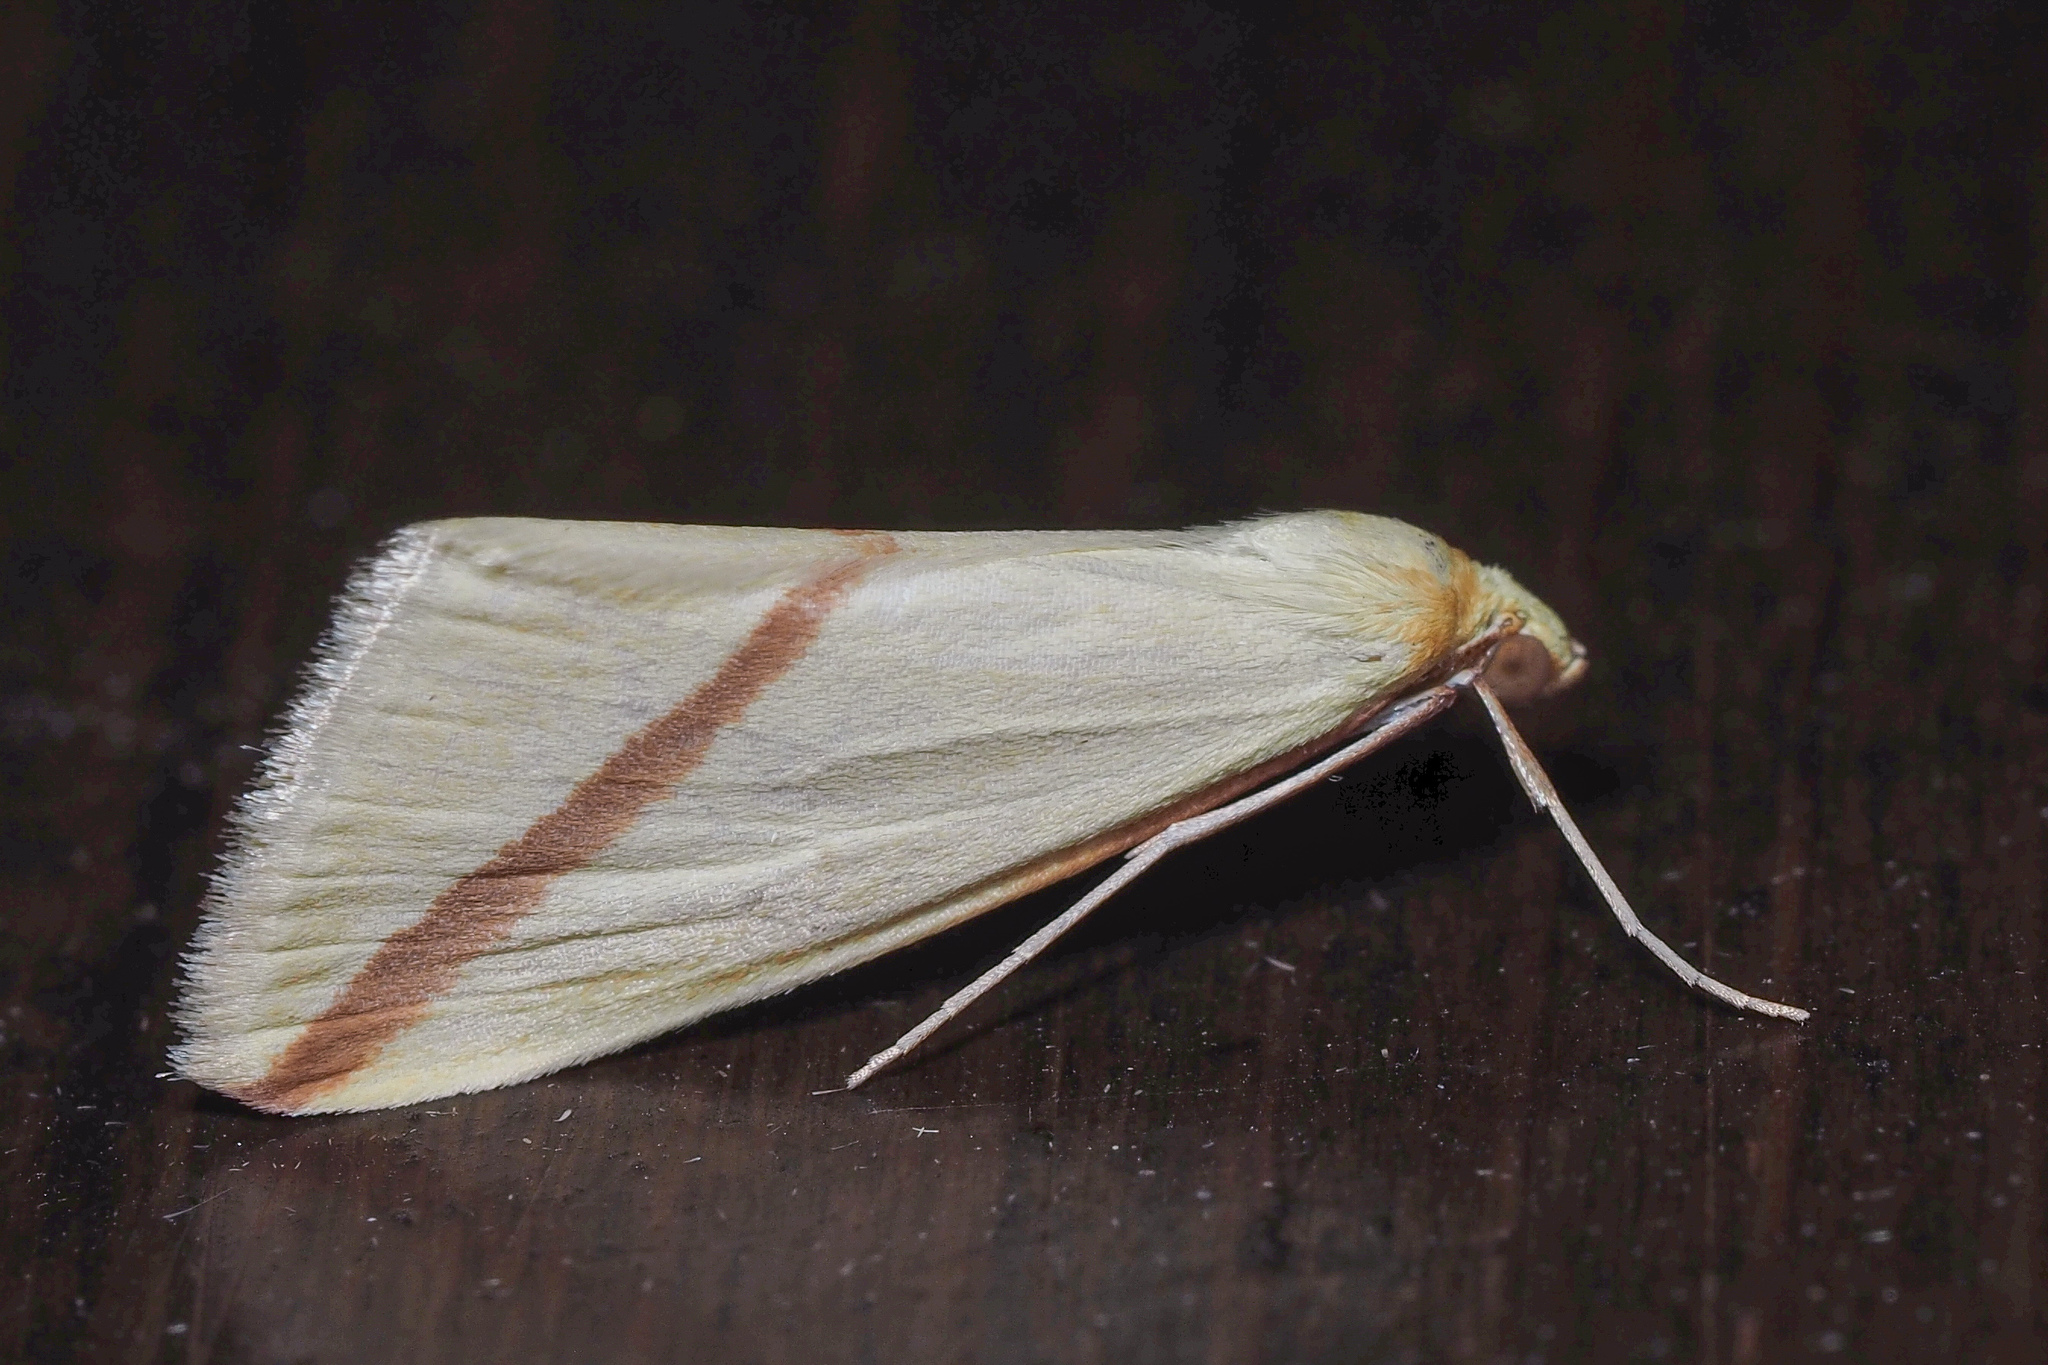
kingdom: Animalia
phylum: Arthropoda
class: Insecta
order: Lepidoptera
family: Geometridae
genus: Rhodometra
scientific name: Rhodometra sacraria
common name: Vestal
